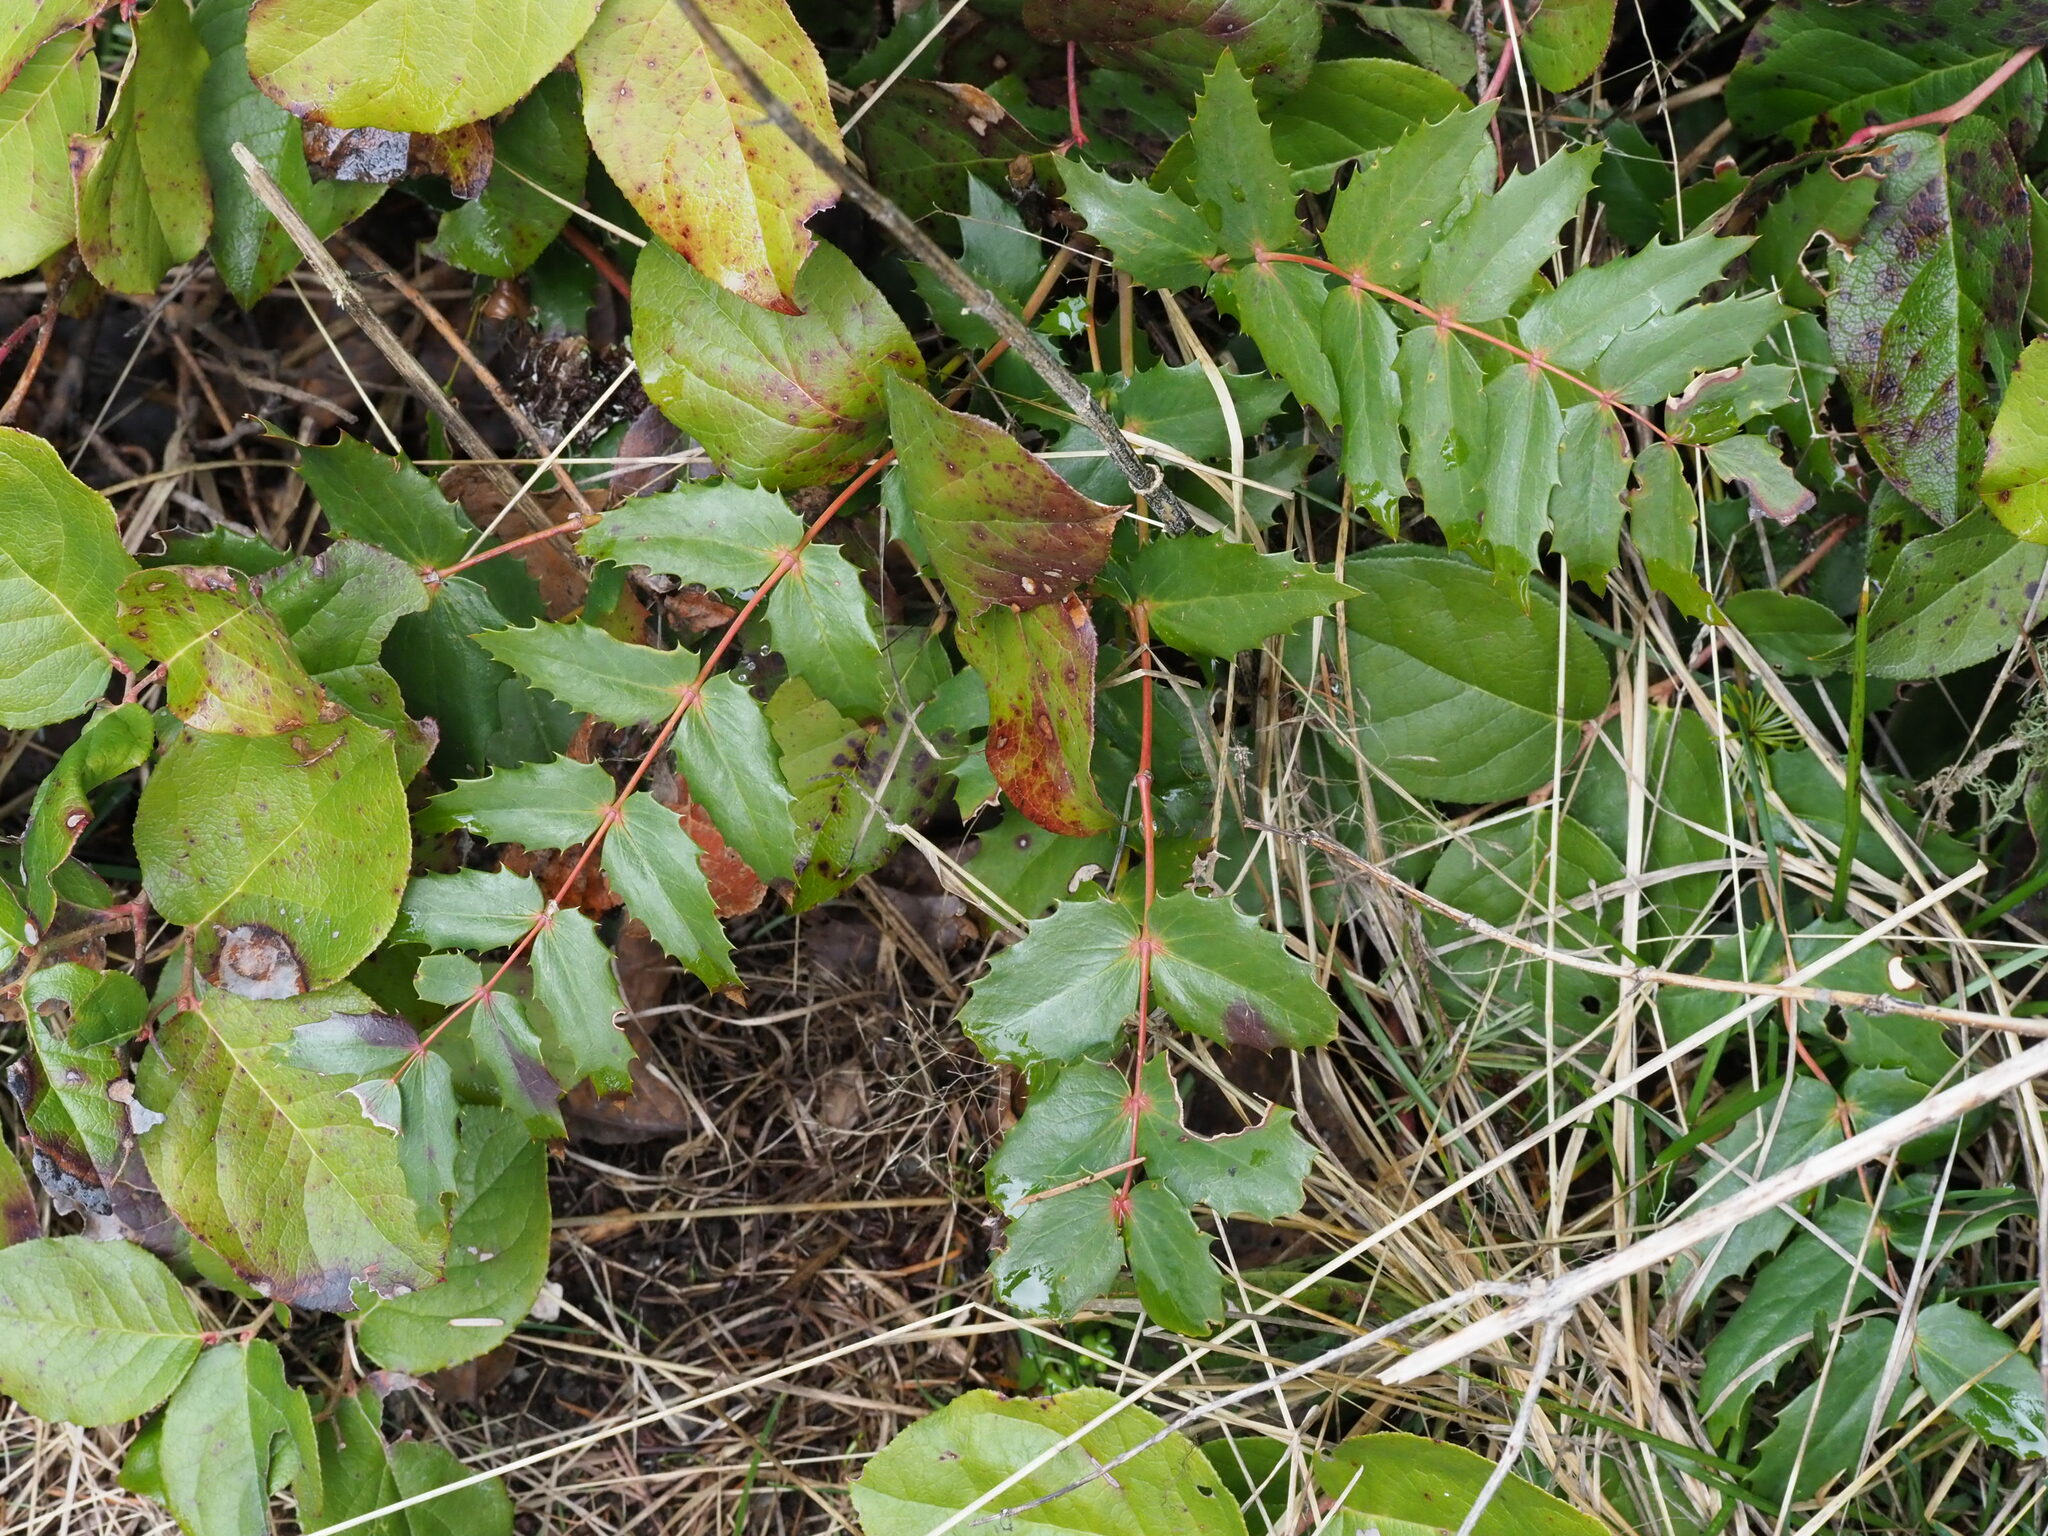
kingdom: Plantae
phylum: Tracheophyta
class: Magnoliopsida
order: Ranunculales
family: Berberidaceae
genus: Mahonia
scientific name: Mahonia nervosa
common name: Cascade oregon-grape
